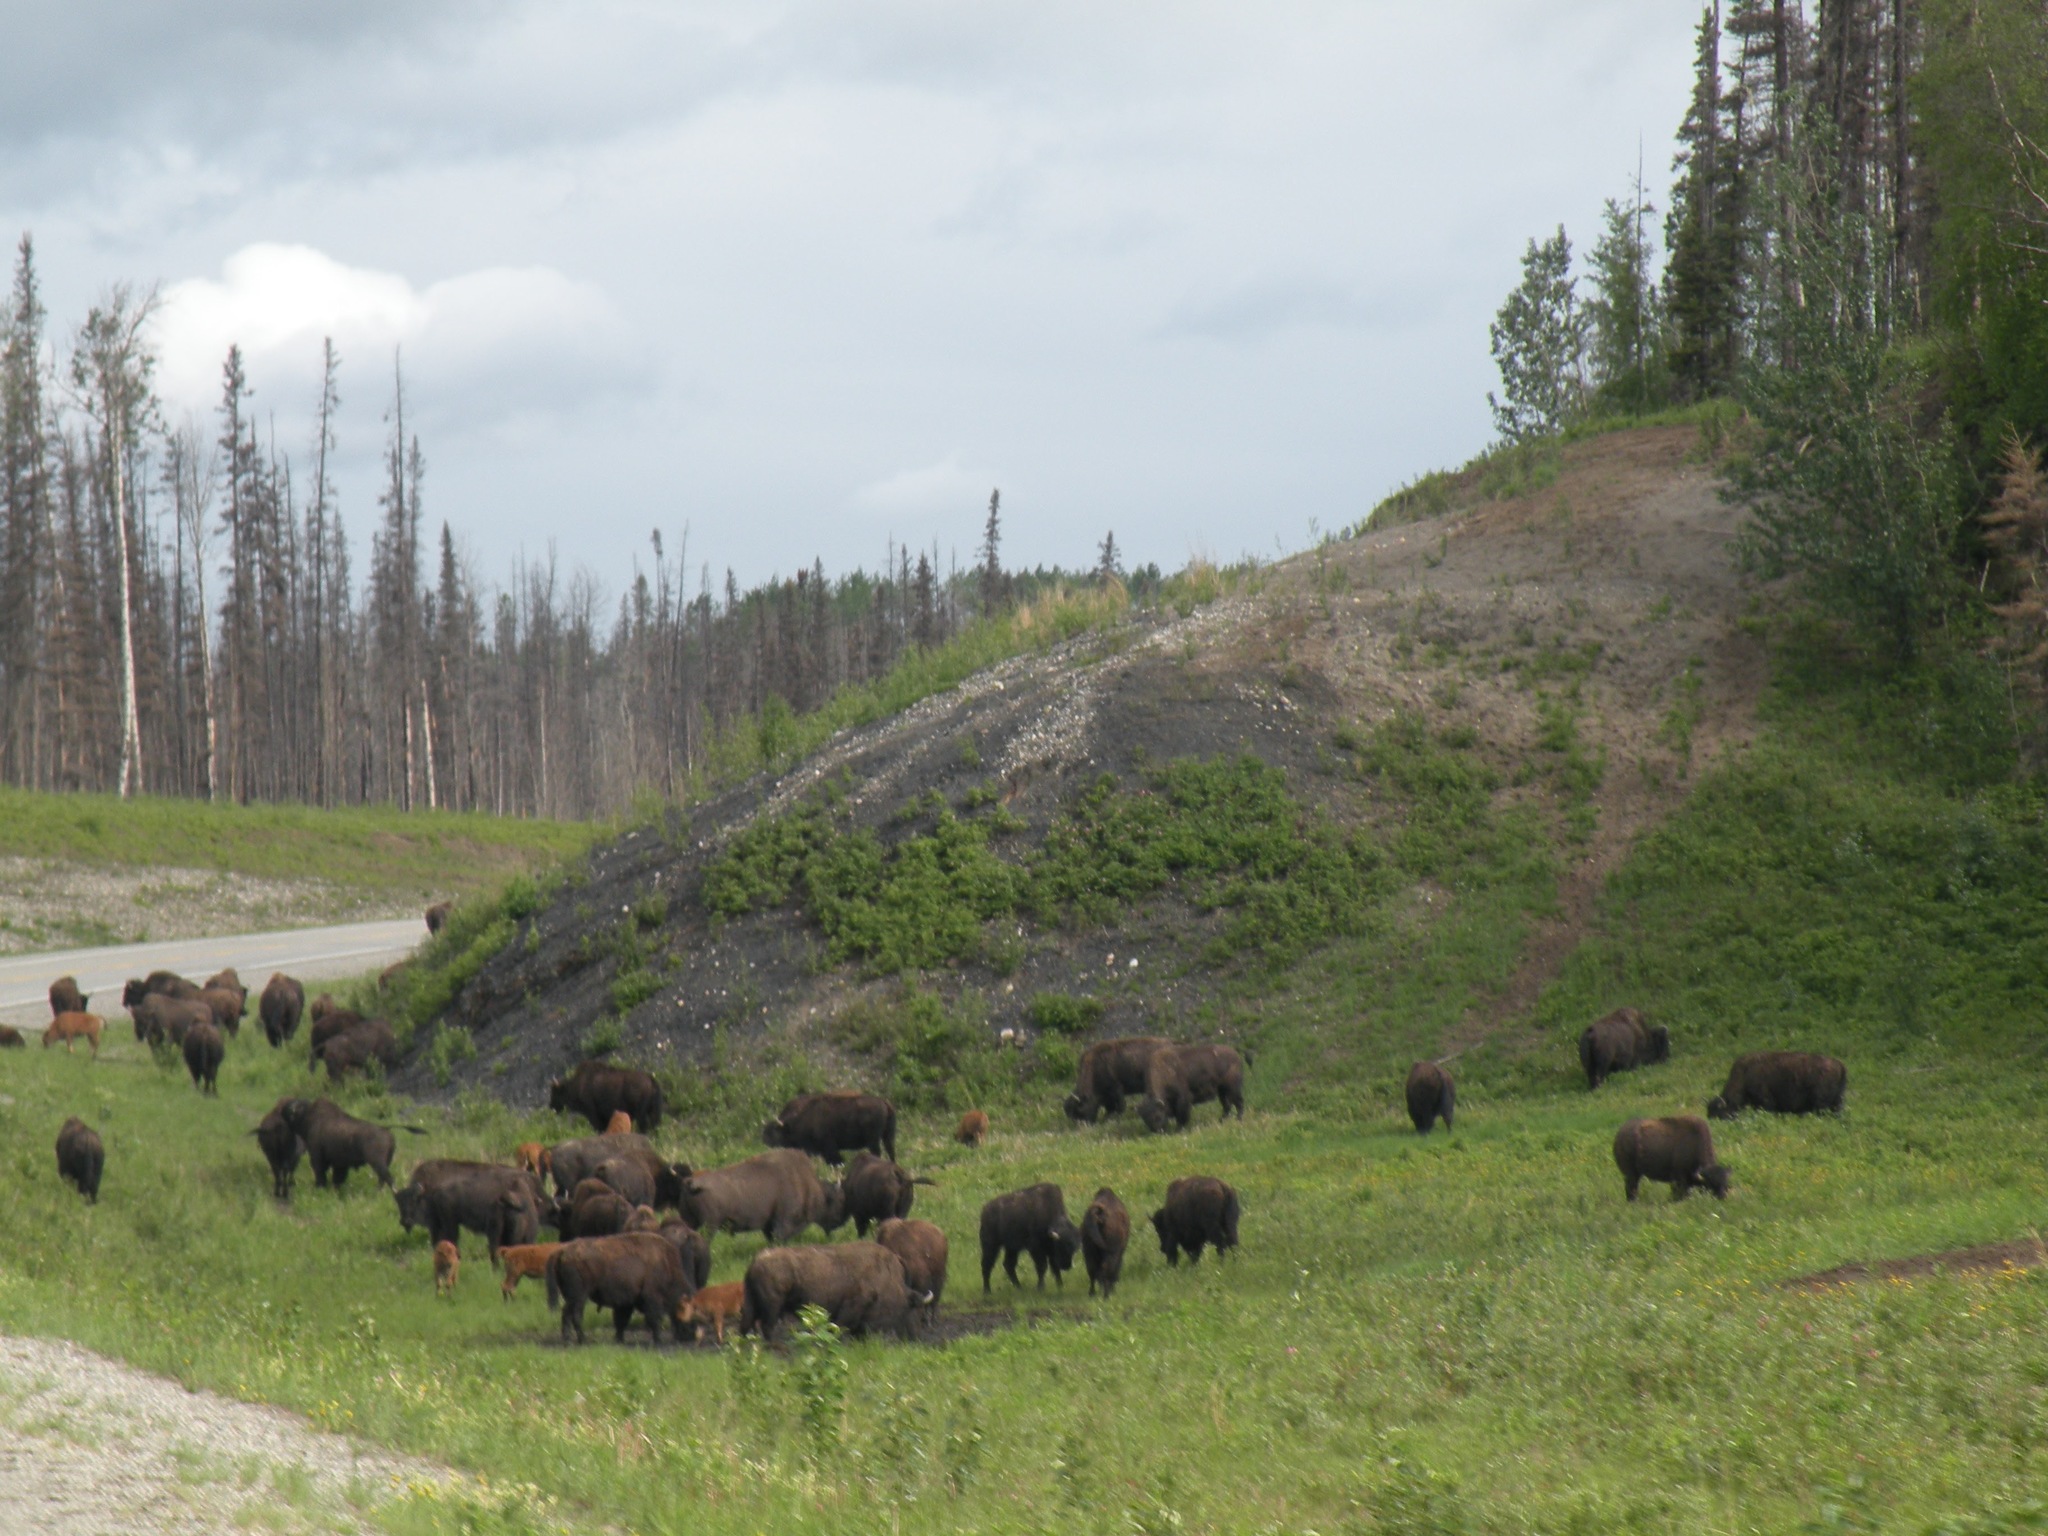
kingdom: Animalia
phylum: Chordata
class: Mammalia
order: Artiodactyla
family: Bovidae
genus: Bison
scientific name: Bison bison
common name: American bison
